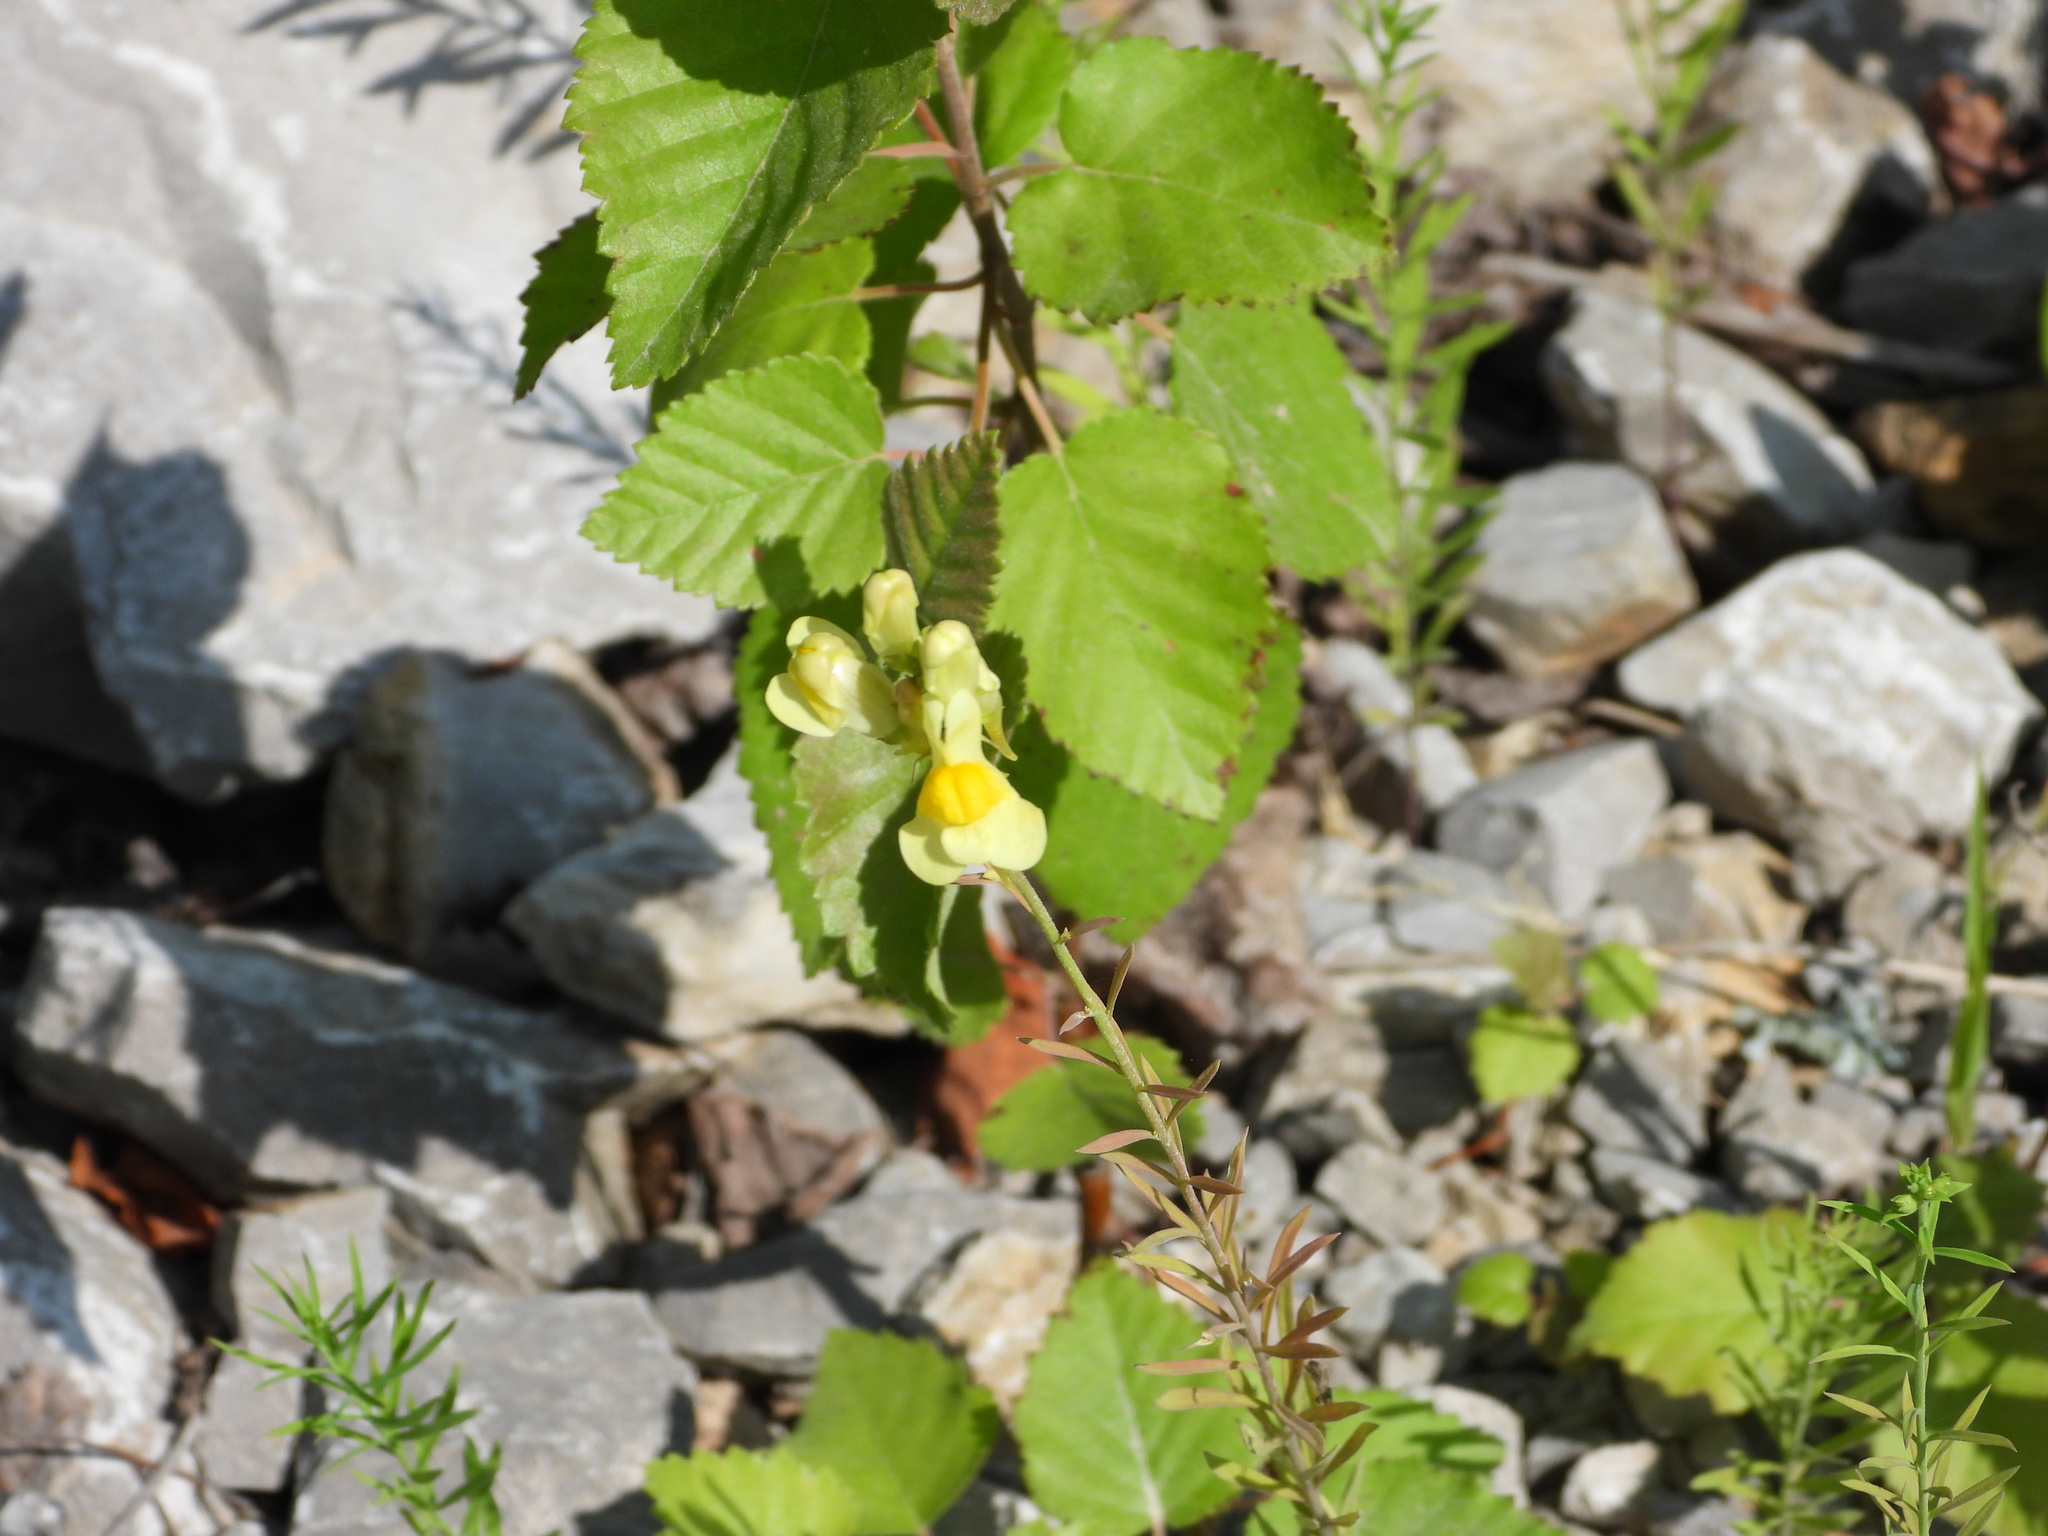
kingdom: Plantae
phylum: Tracheophyta
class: Magnoliopsida
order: Lamiales
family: Plantaginaceae
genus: Linaria
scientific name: Linaria vulgaris
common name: Butter and eggs
